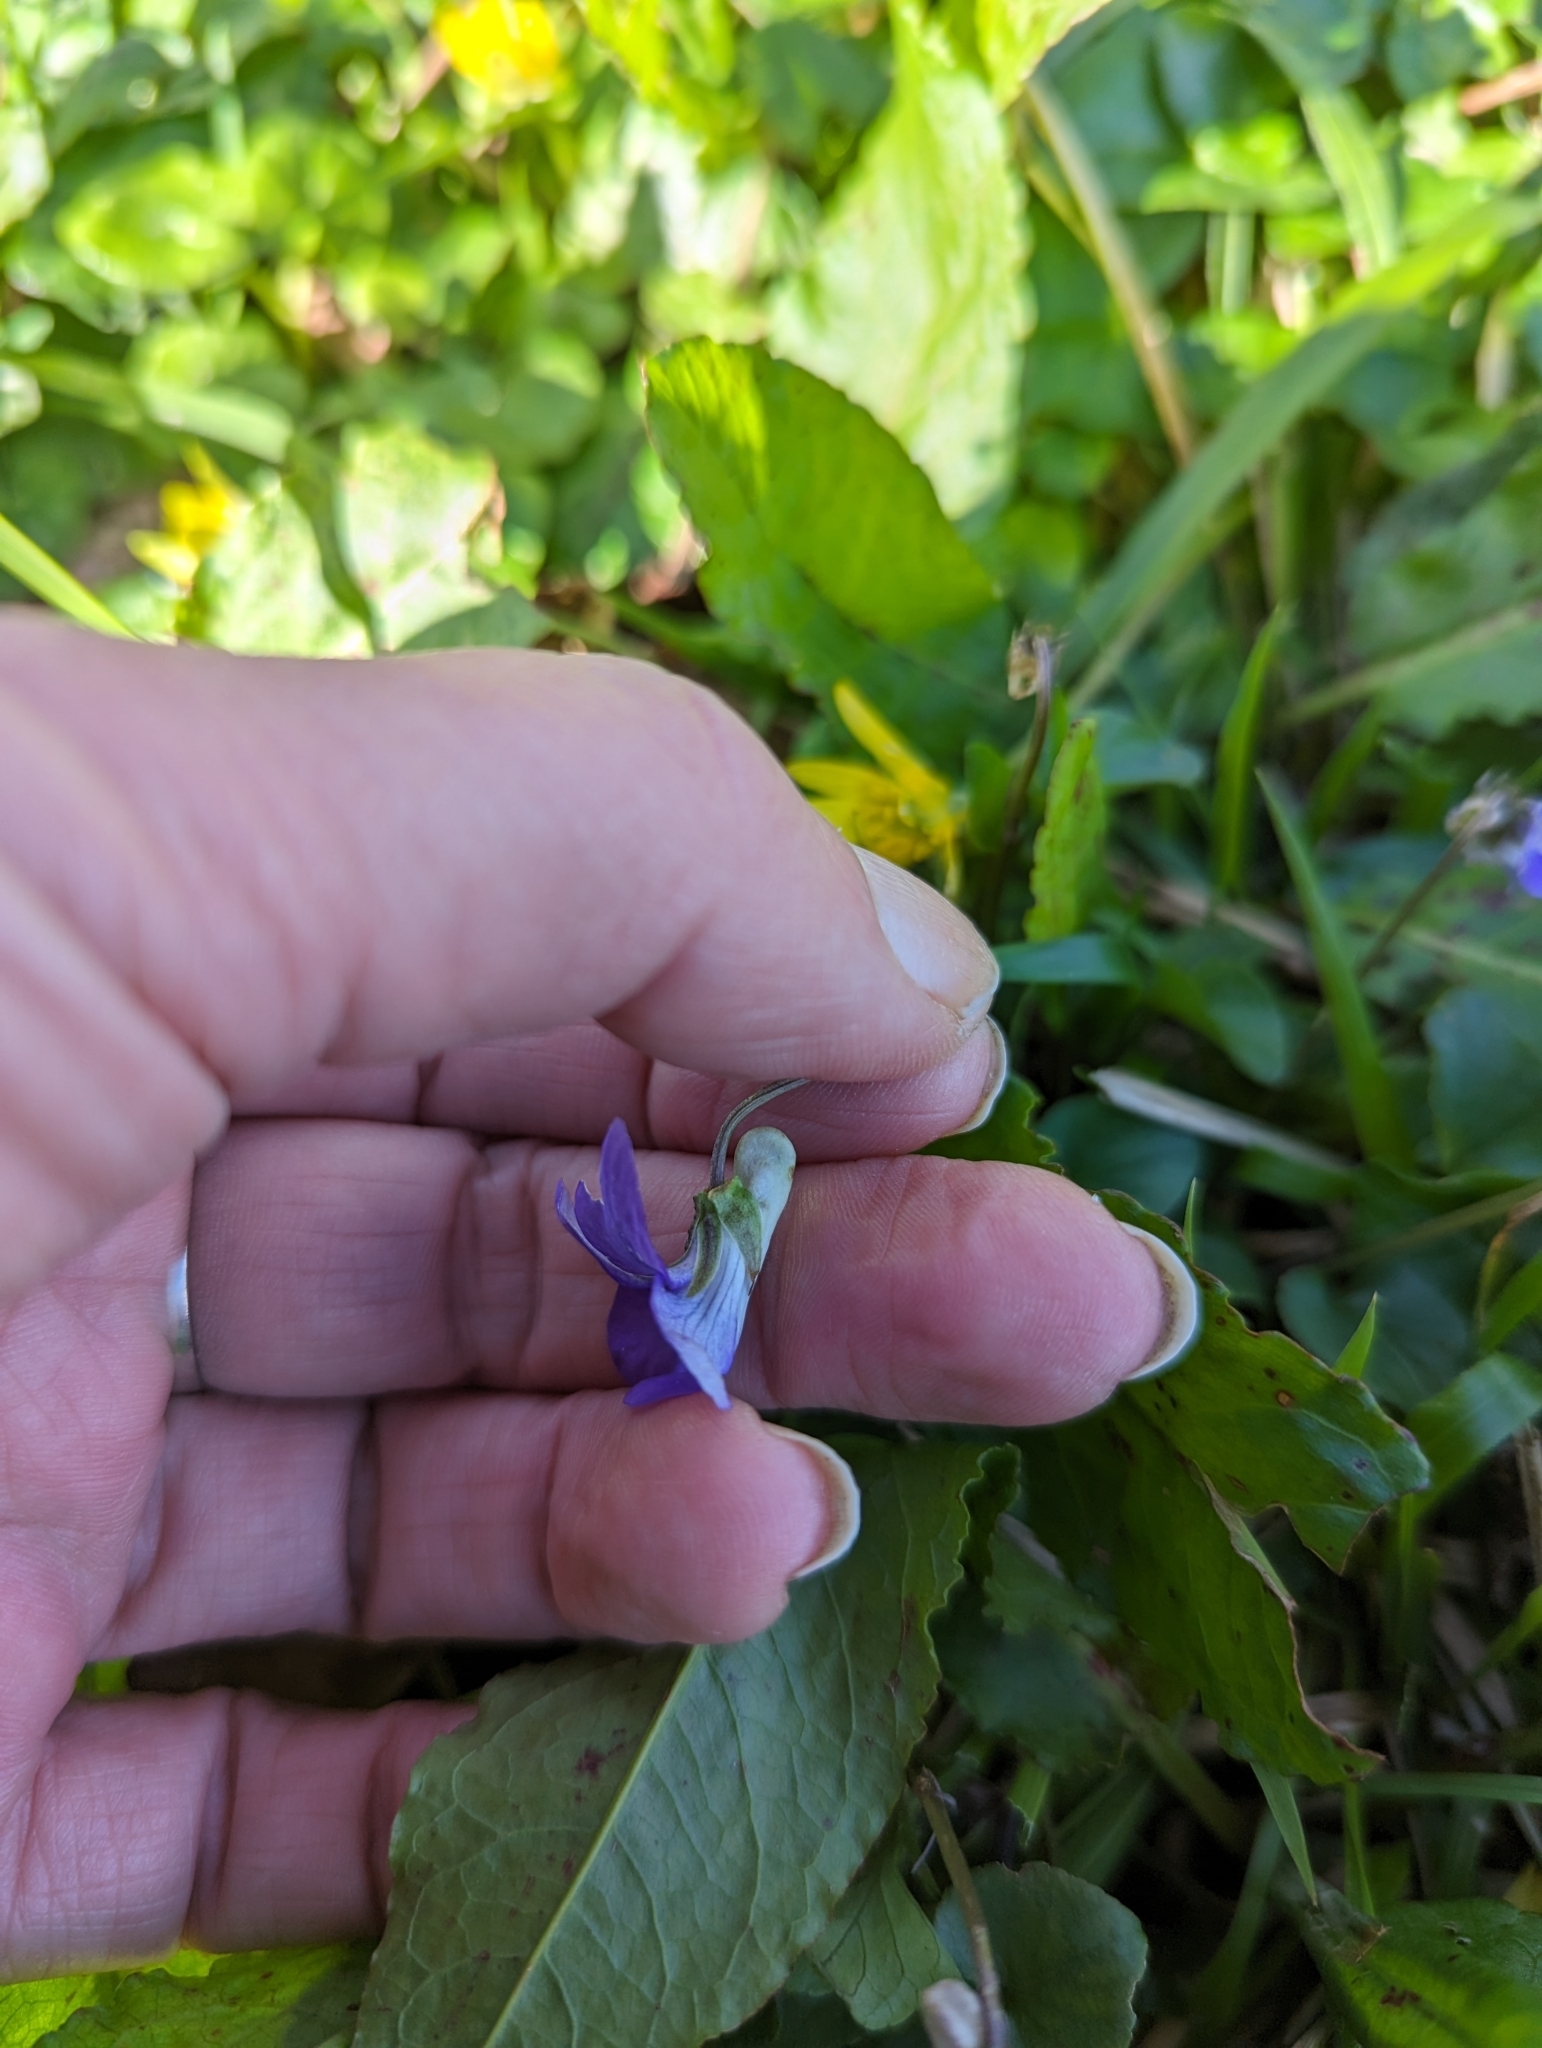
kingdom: Plantae
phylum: Tracheophyta
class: Magnoliopsida
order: Malpighiales
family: Violaceae
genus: Viola
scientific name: Viola riviniana
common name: Common dog-violet
